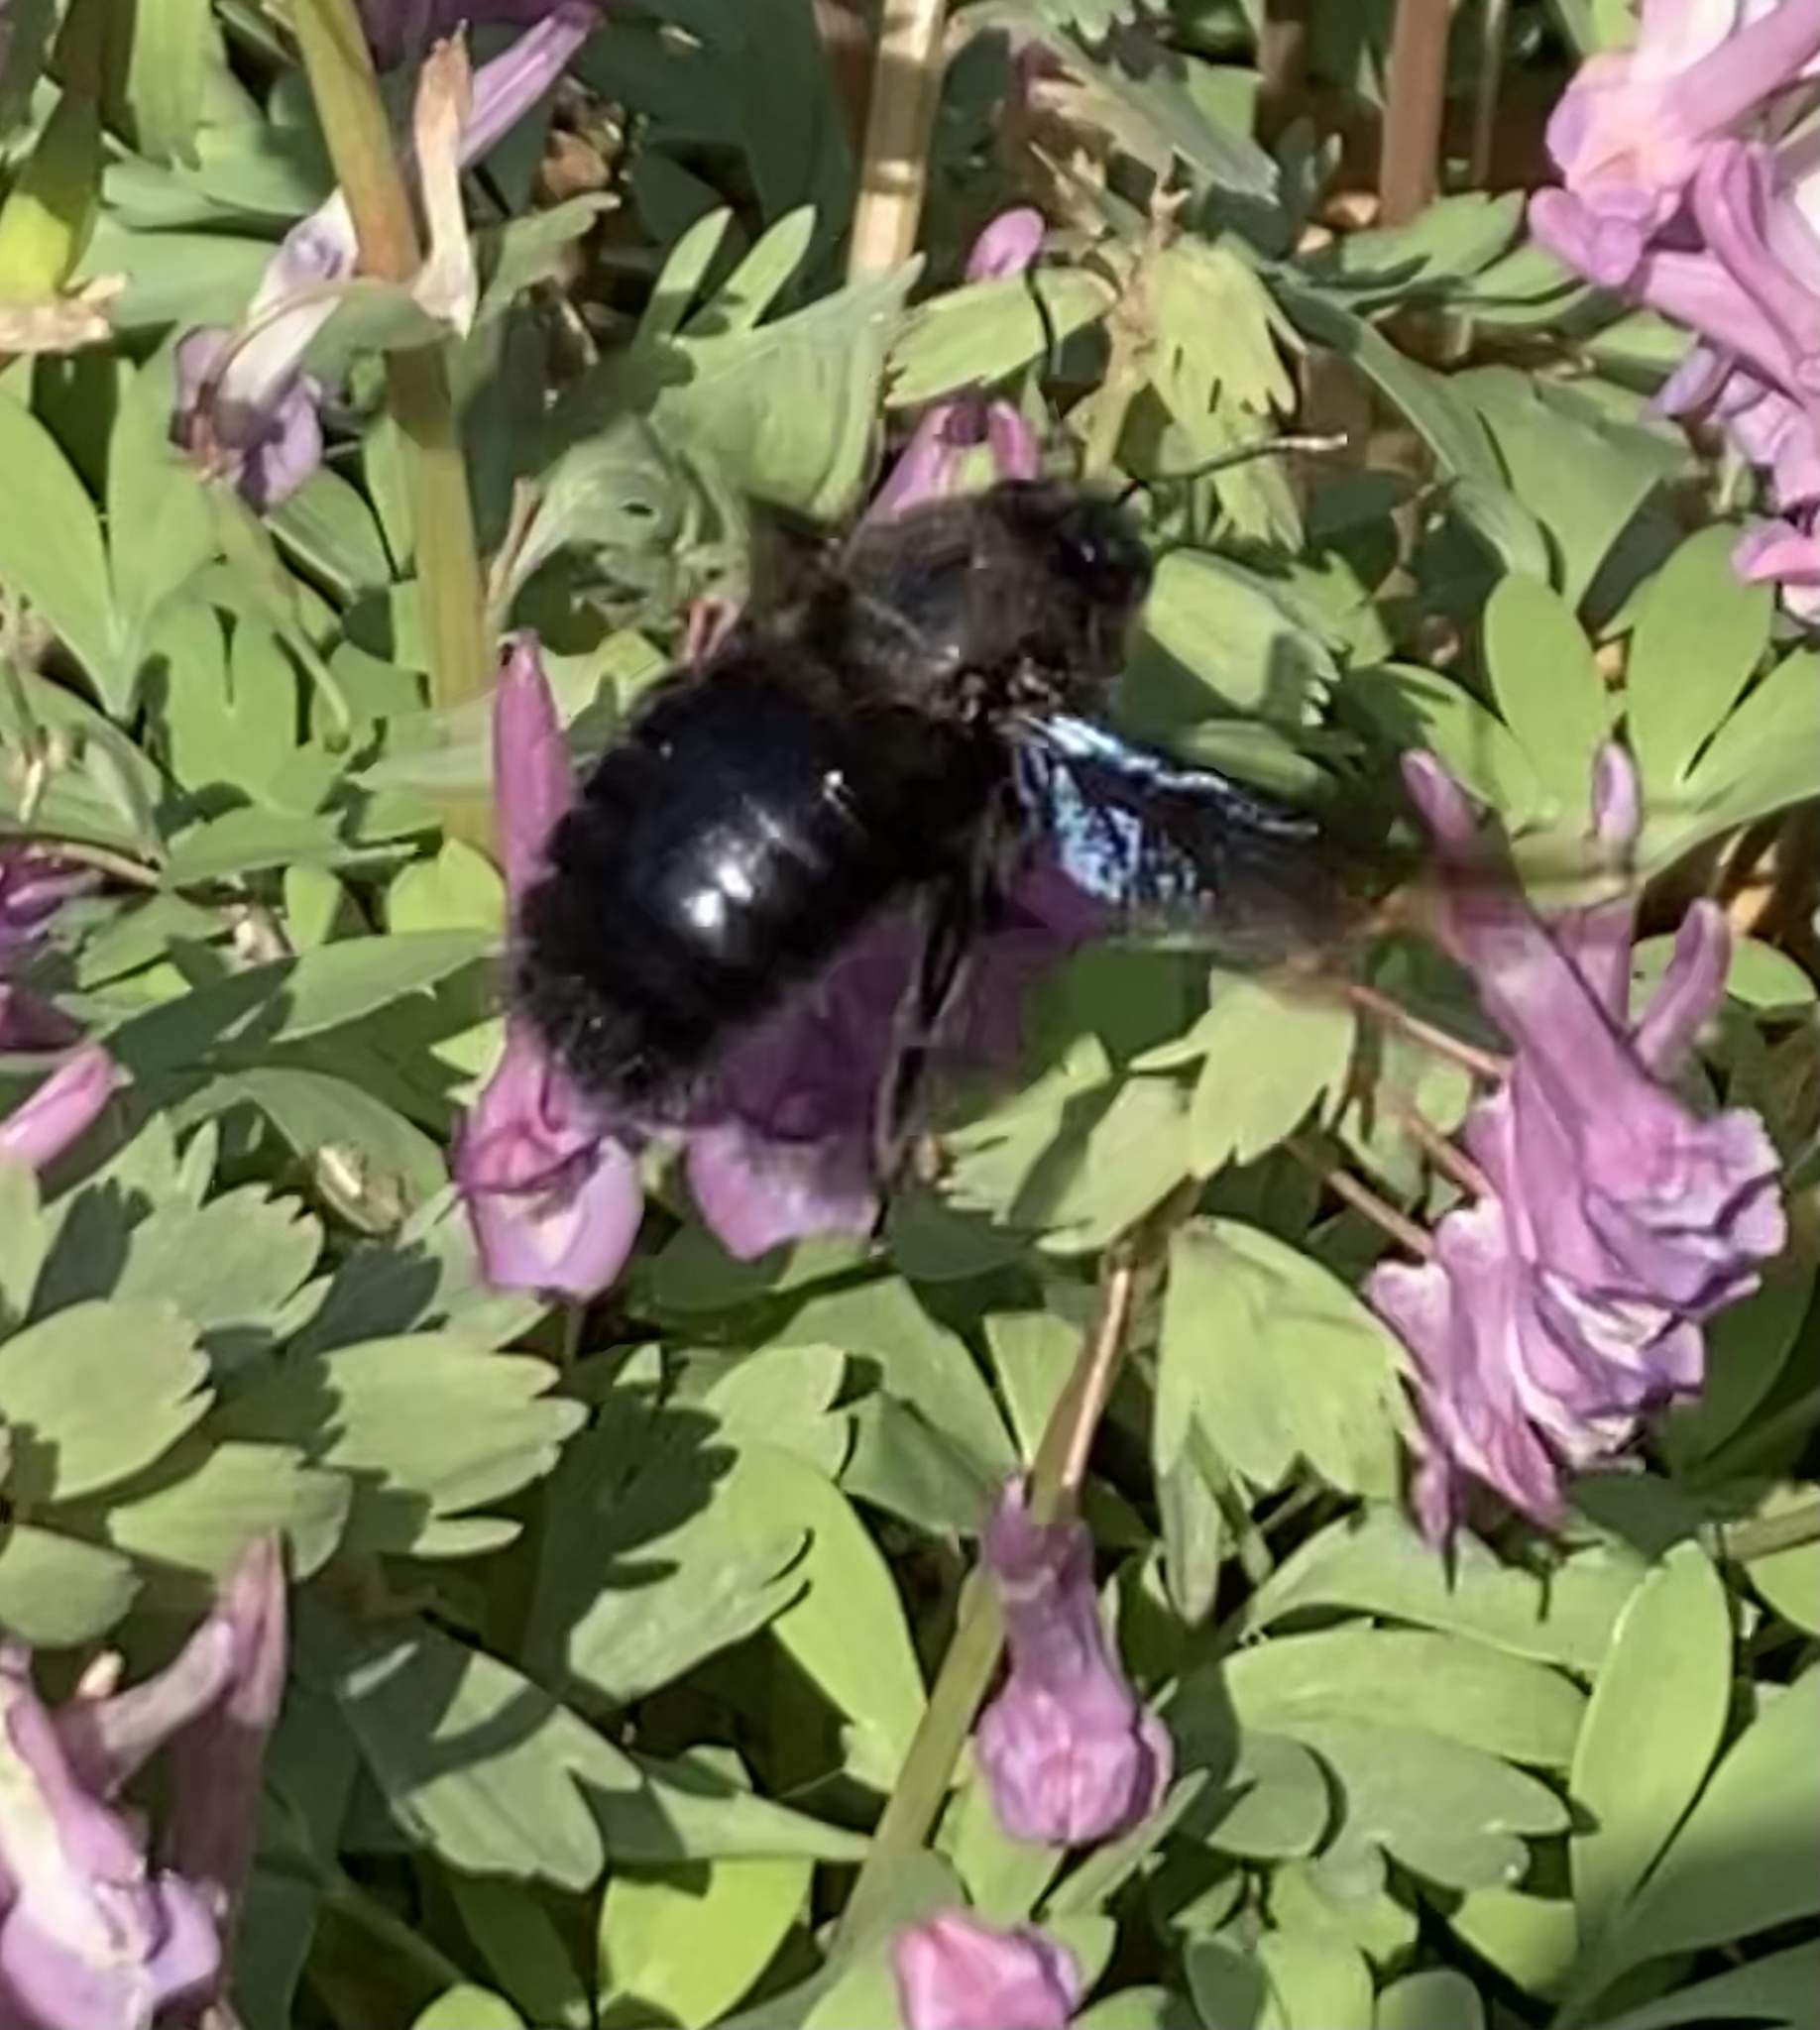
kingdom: Animalia
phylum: Arthropoda
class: Insecta
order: Hymenoptera
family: Apidae
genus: Xylocopa
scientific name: Xylocopa violacea
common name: Violet carpenter bee
